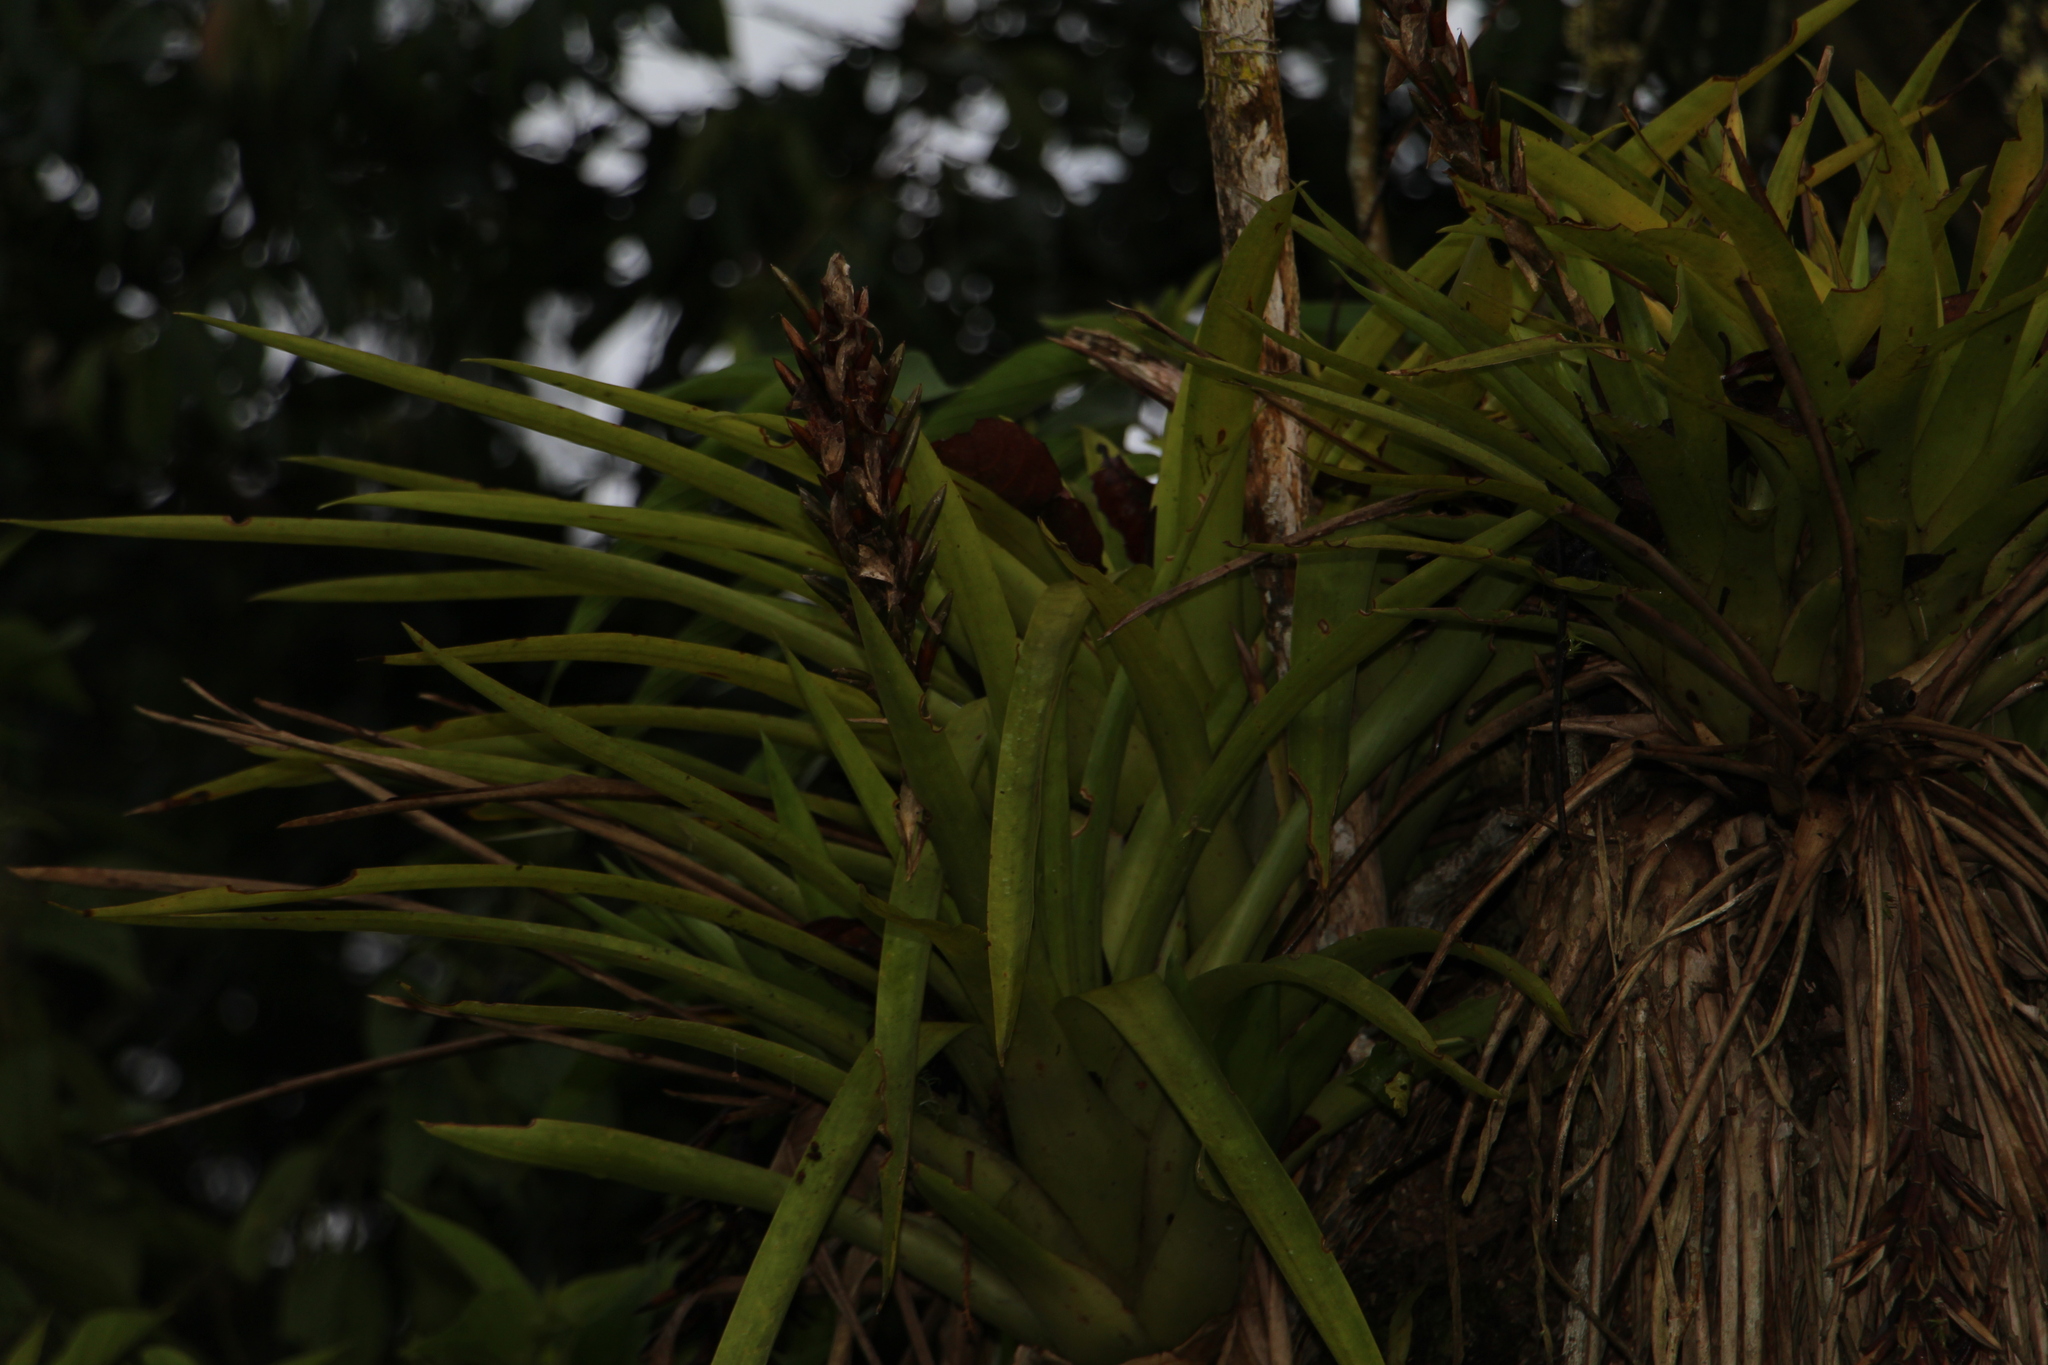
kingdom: Plantae
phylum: Tracheophyta
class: Liliopsida
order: Poales
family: Bromeliaceae
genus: Guzmania
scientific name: Guzmania monostachia
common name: West indian tufted airplant
